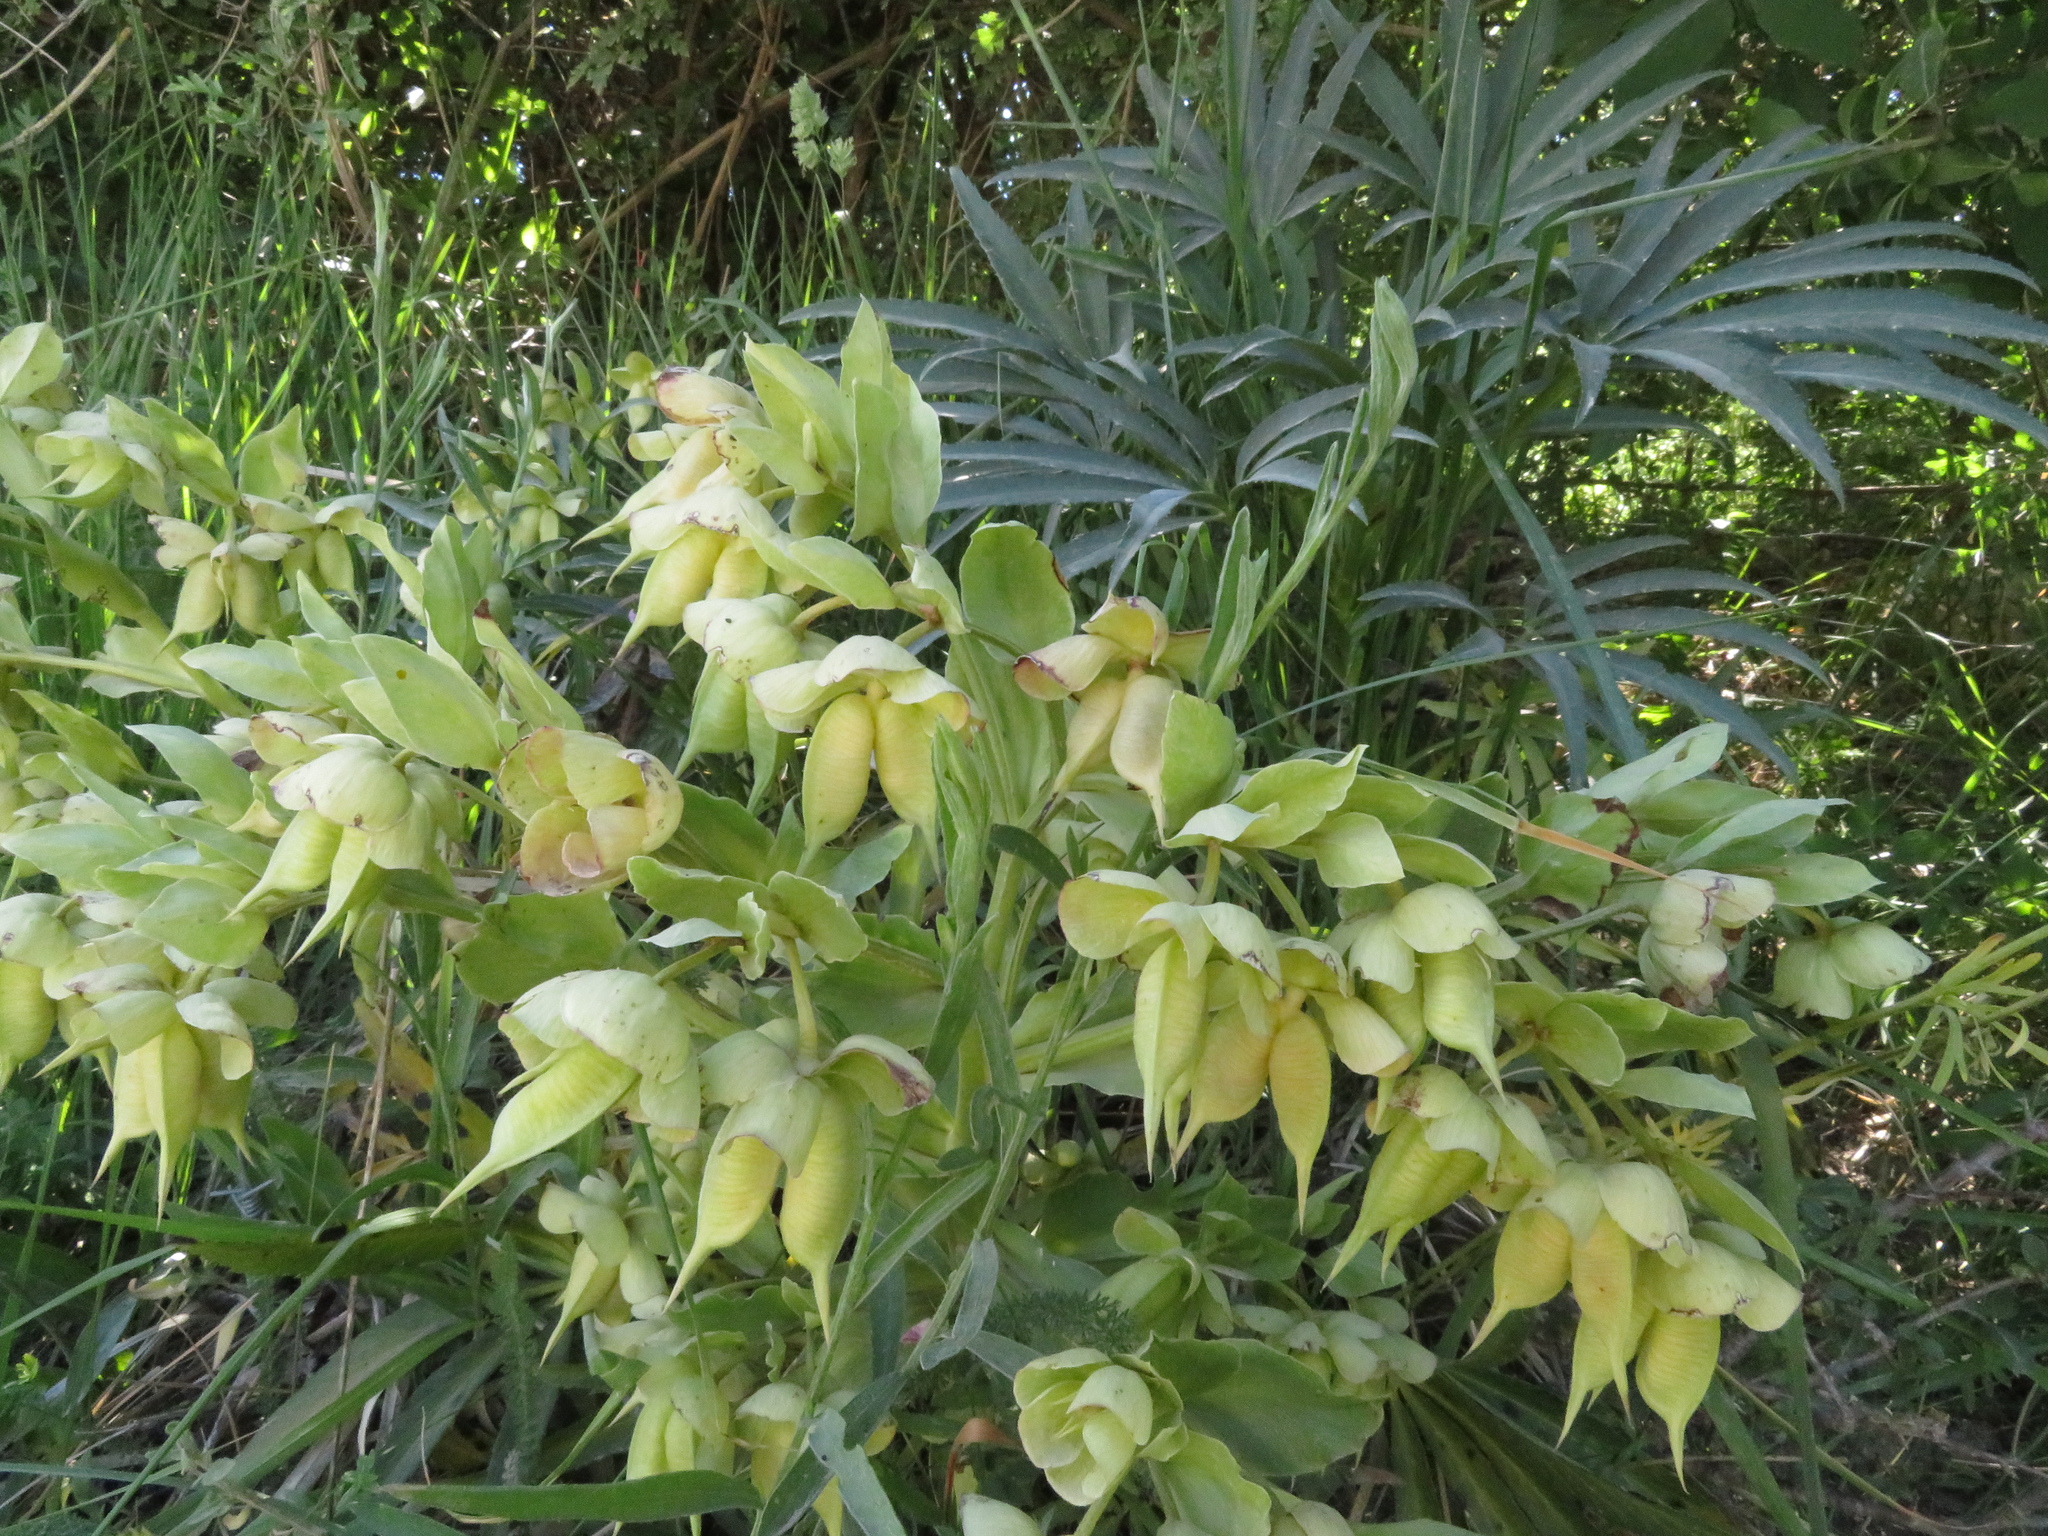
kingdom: Plantae
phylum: Tracheophyta
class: Magnoliopsida
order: Ranunculales
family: Ranunculaceae
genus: Helleborus
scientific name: Helleborus foetidus
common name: Stinking hellebore
